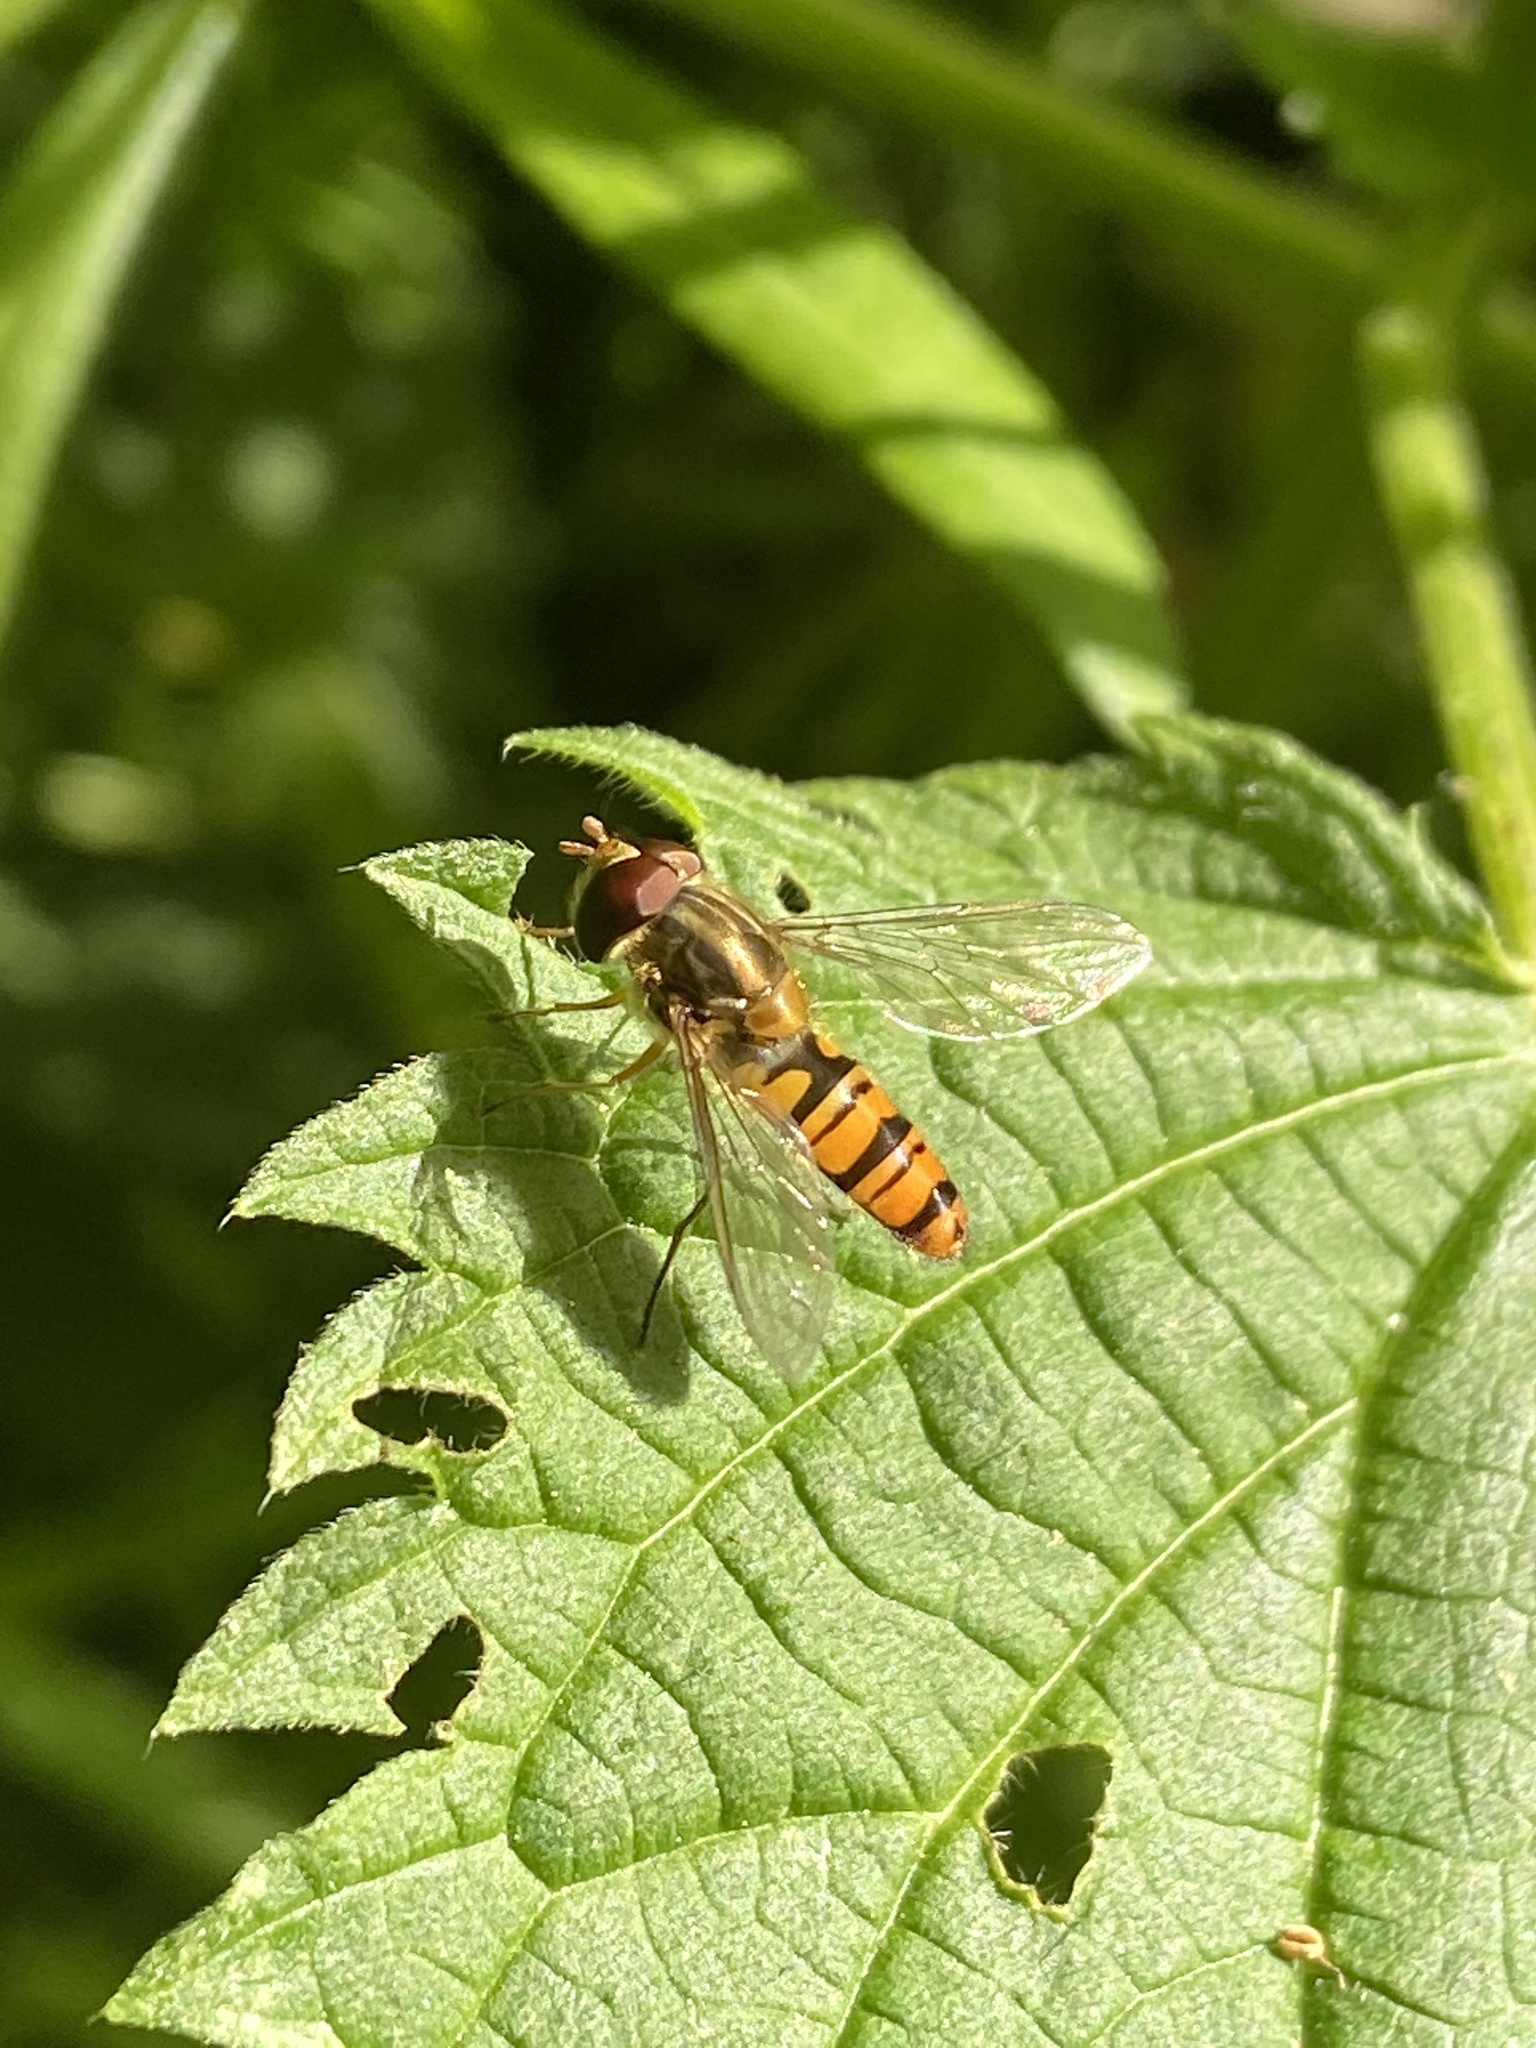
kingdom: Animalia
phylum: Arthropoda
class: Insecta
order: Diptera
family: Syrphidae
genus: Episyrphus
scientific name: Episyrphus balteatus
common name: Marmalade hoverfly
